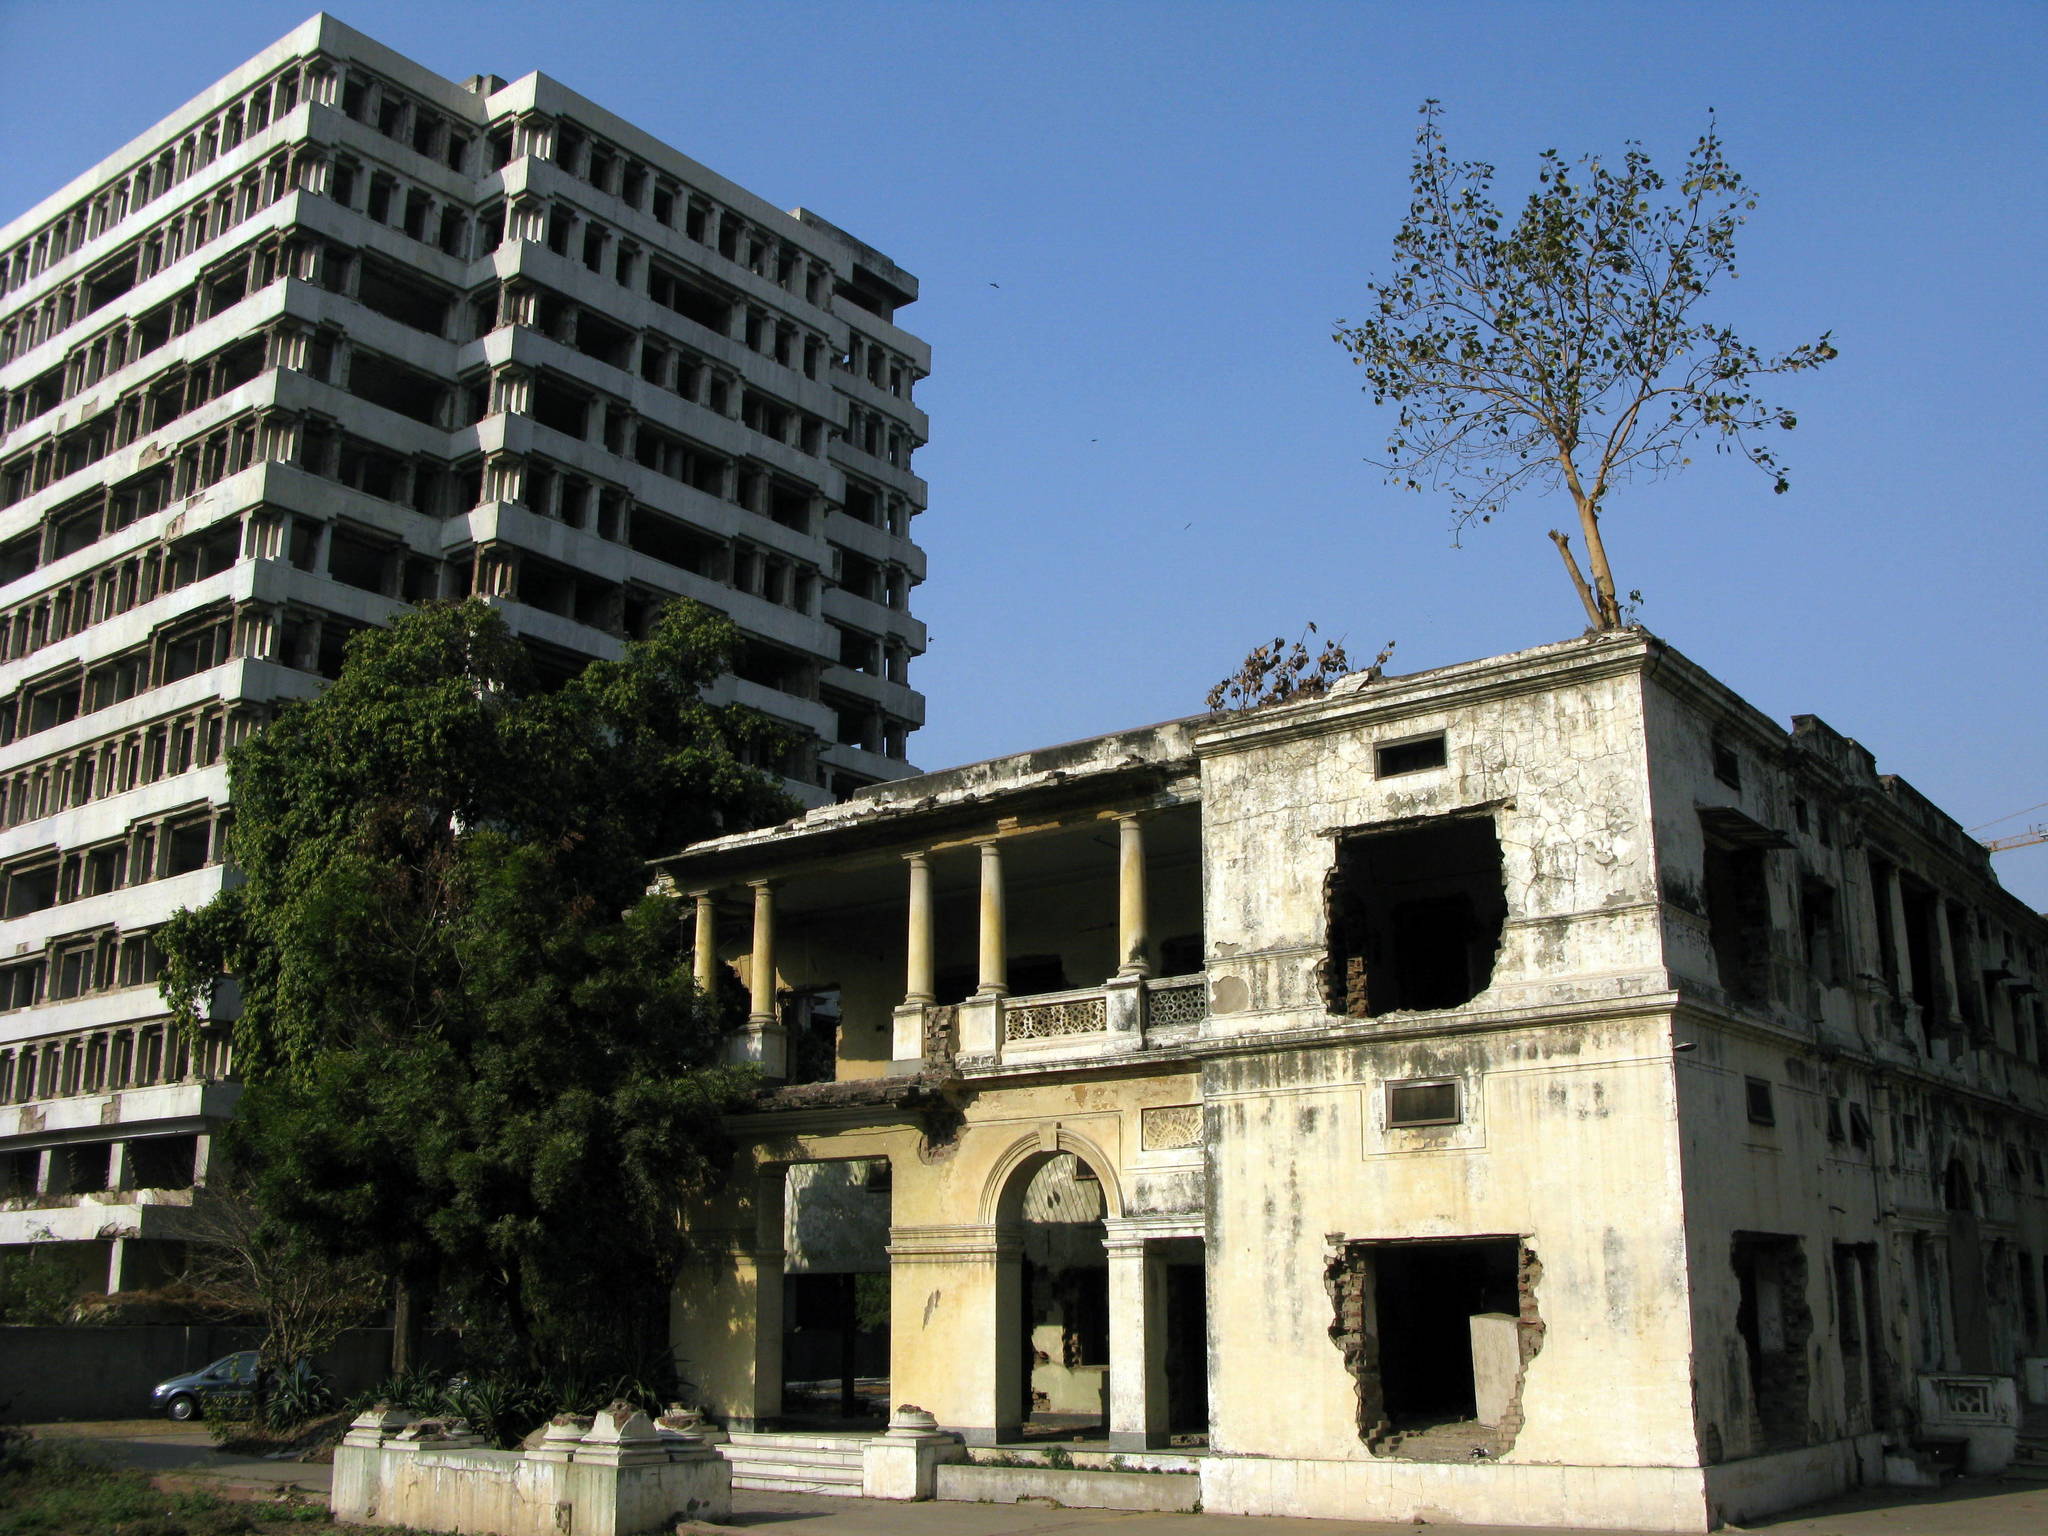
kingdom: Plantae
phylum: Tracheophyta
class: Magnoliopsida
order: Rosales
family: Moraceae
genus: Ficus
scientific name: Ficus religiosa
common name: Bodhi tree
